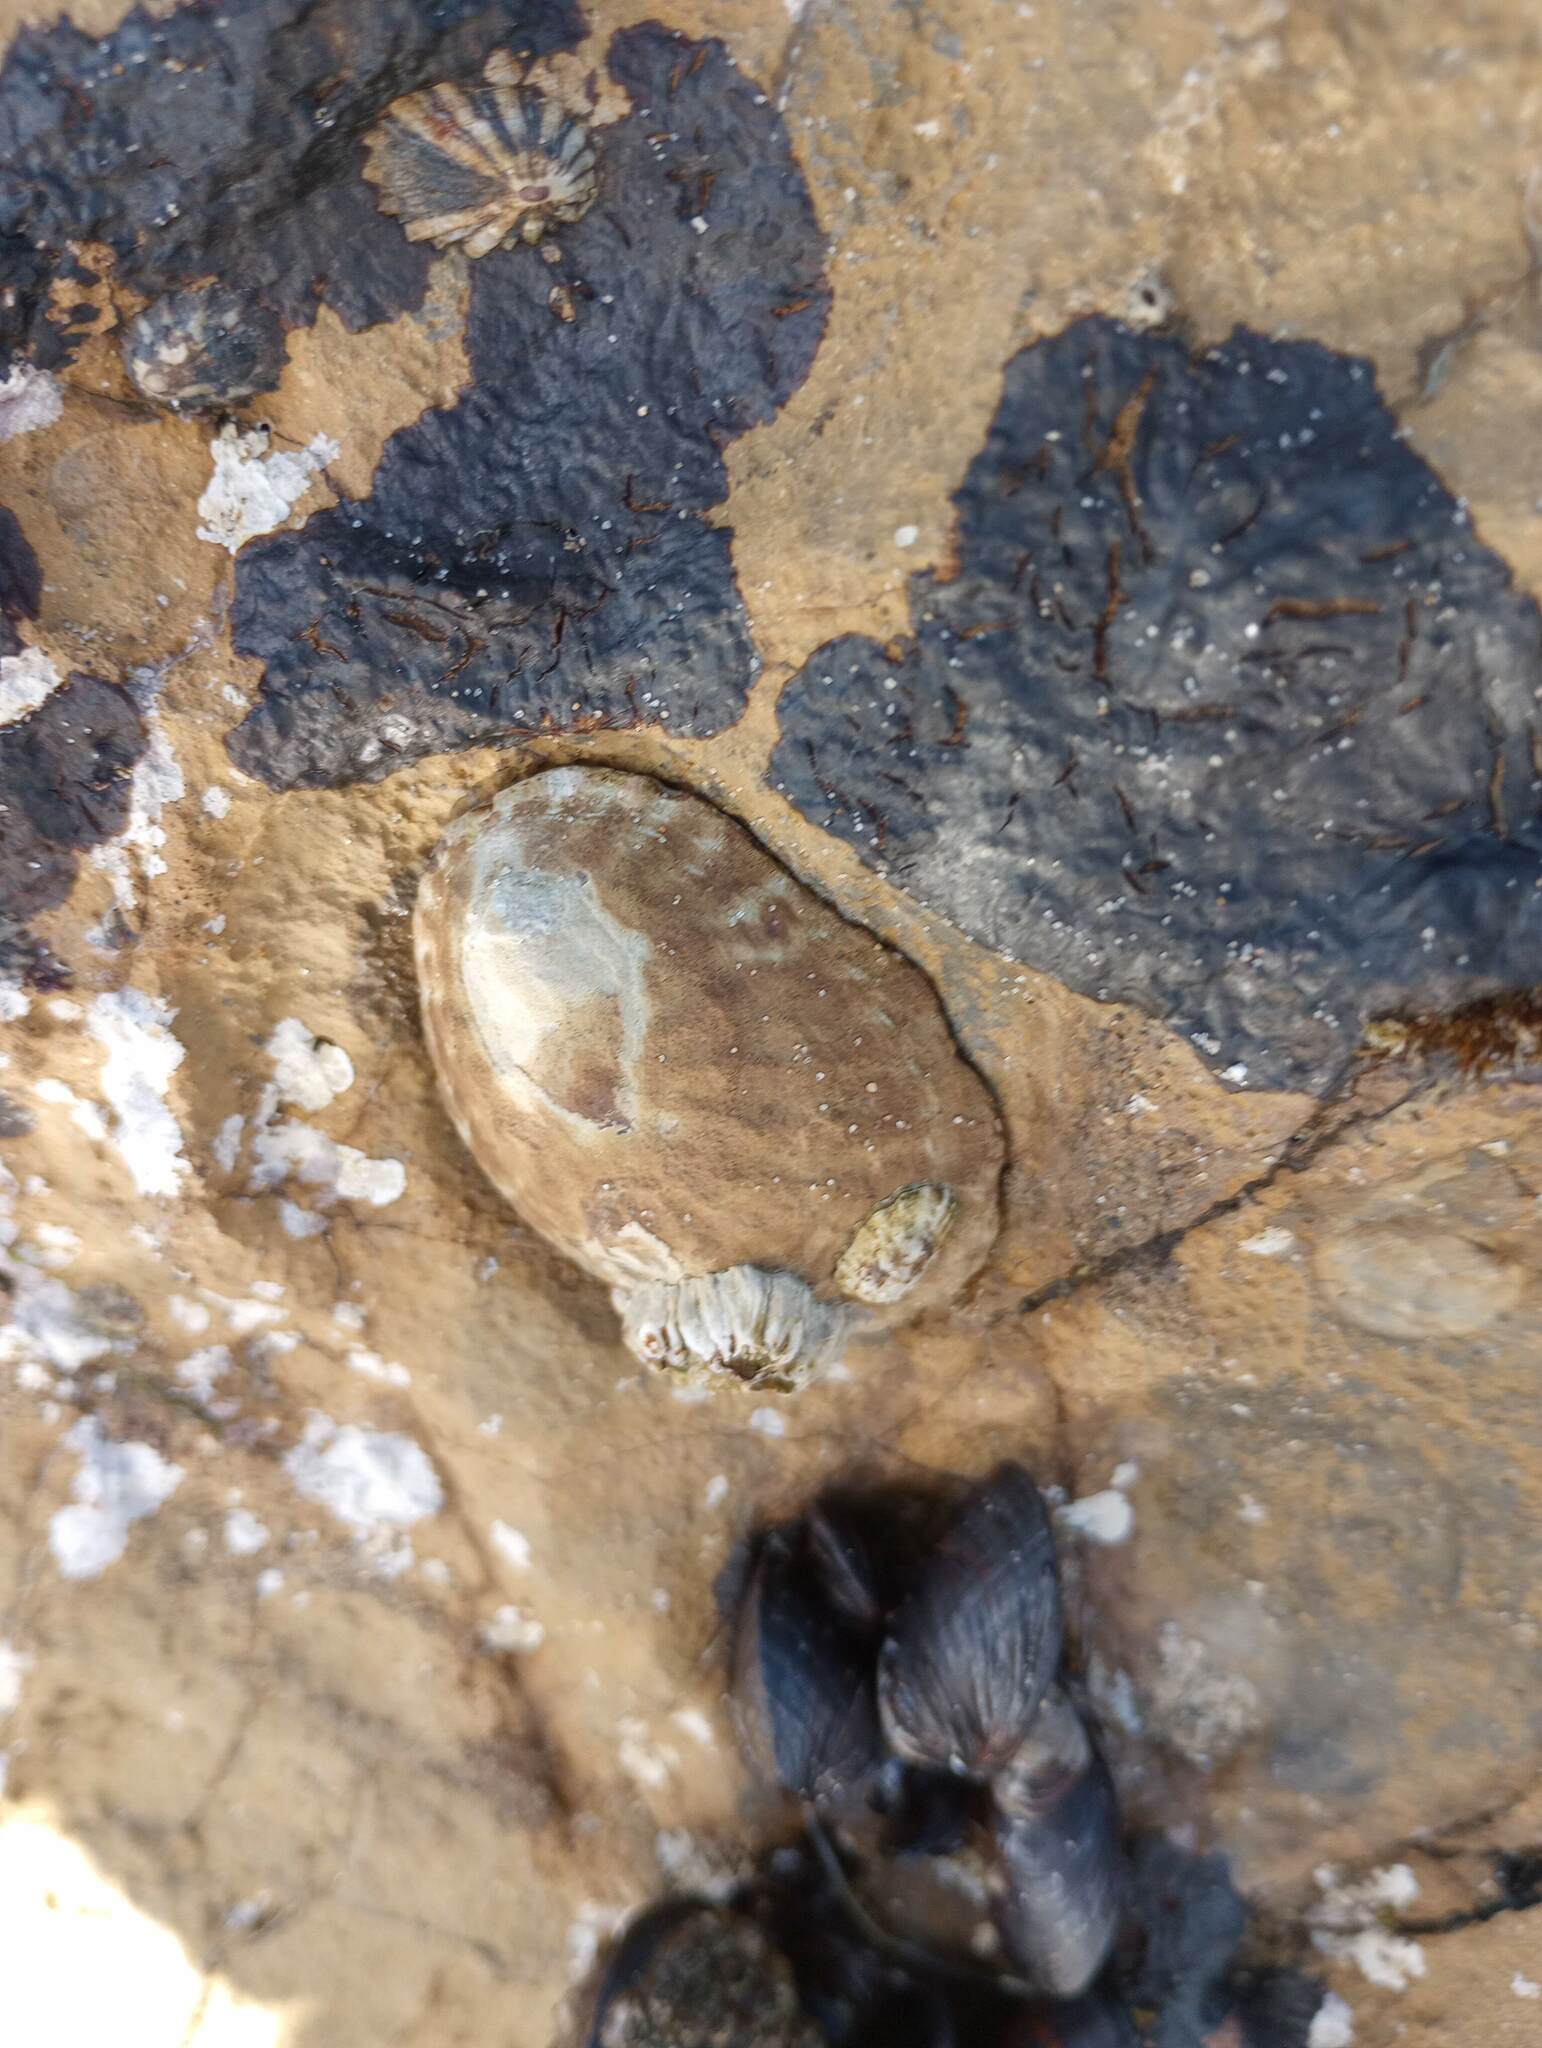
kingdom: Animalia
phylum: Mollusca
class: Gastropoda
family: Lottiidae
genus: Lottia
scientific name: Lottia gigantea
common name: Owl limpet
